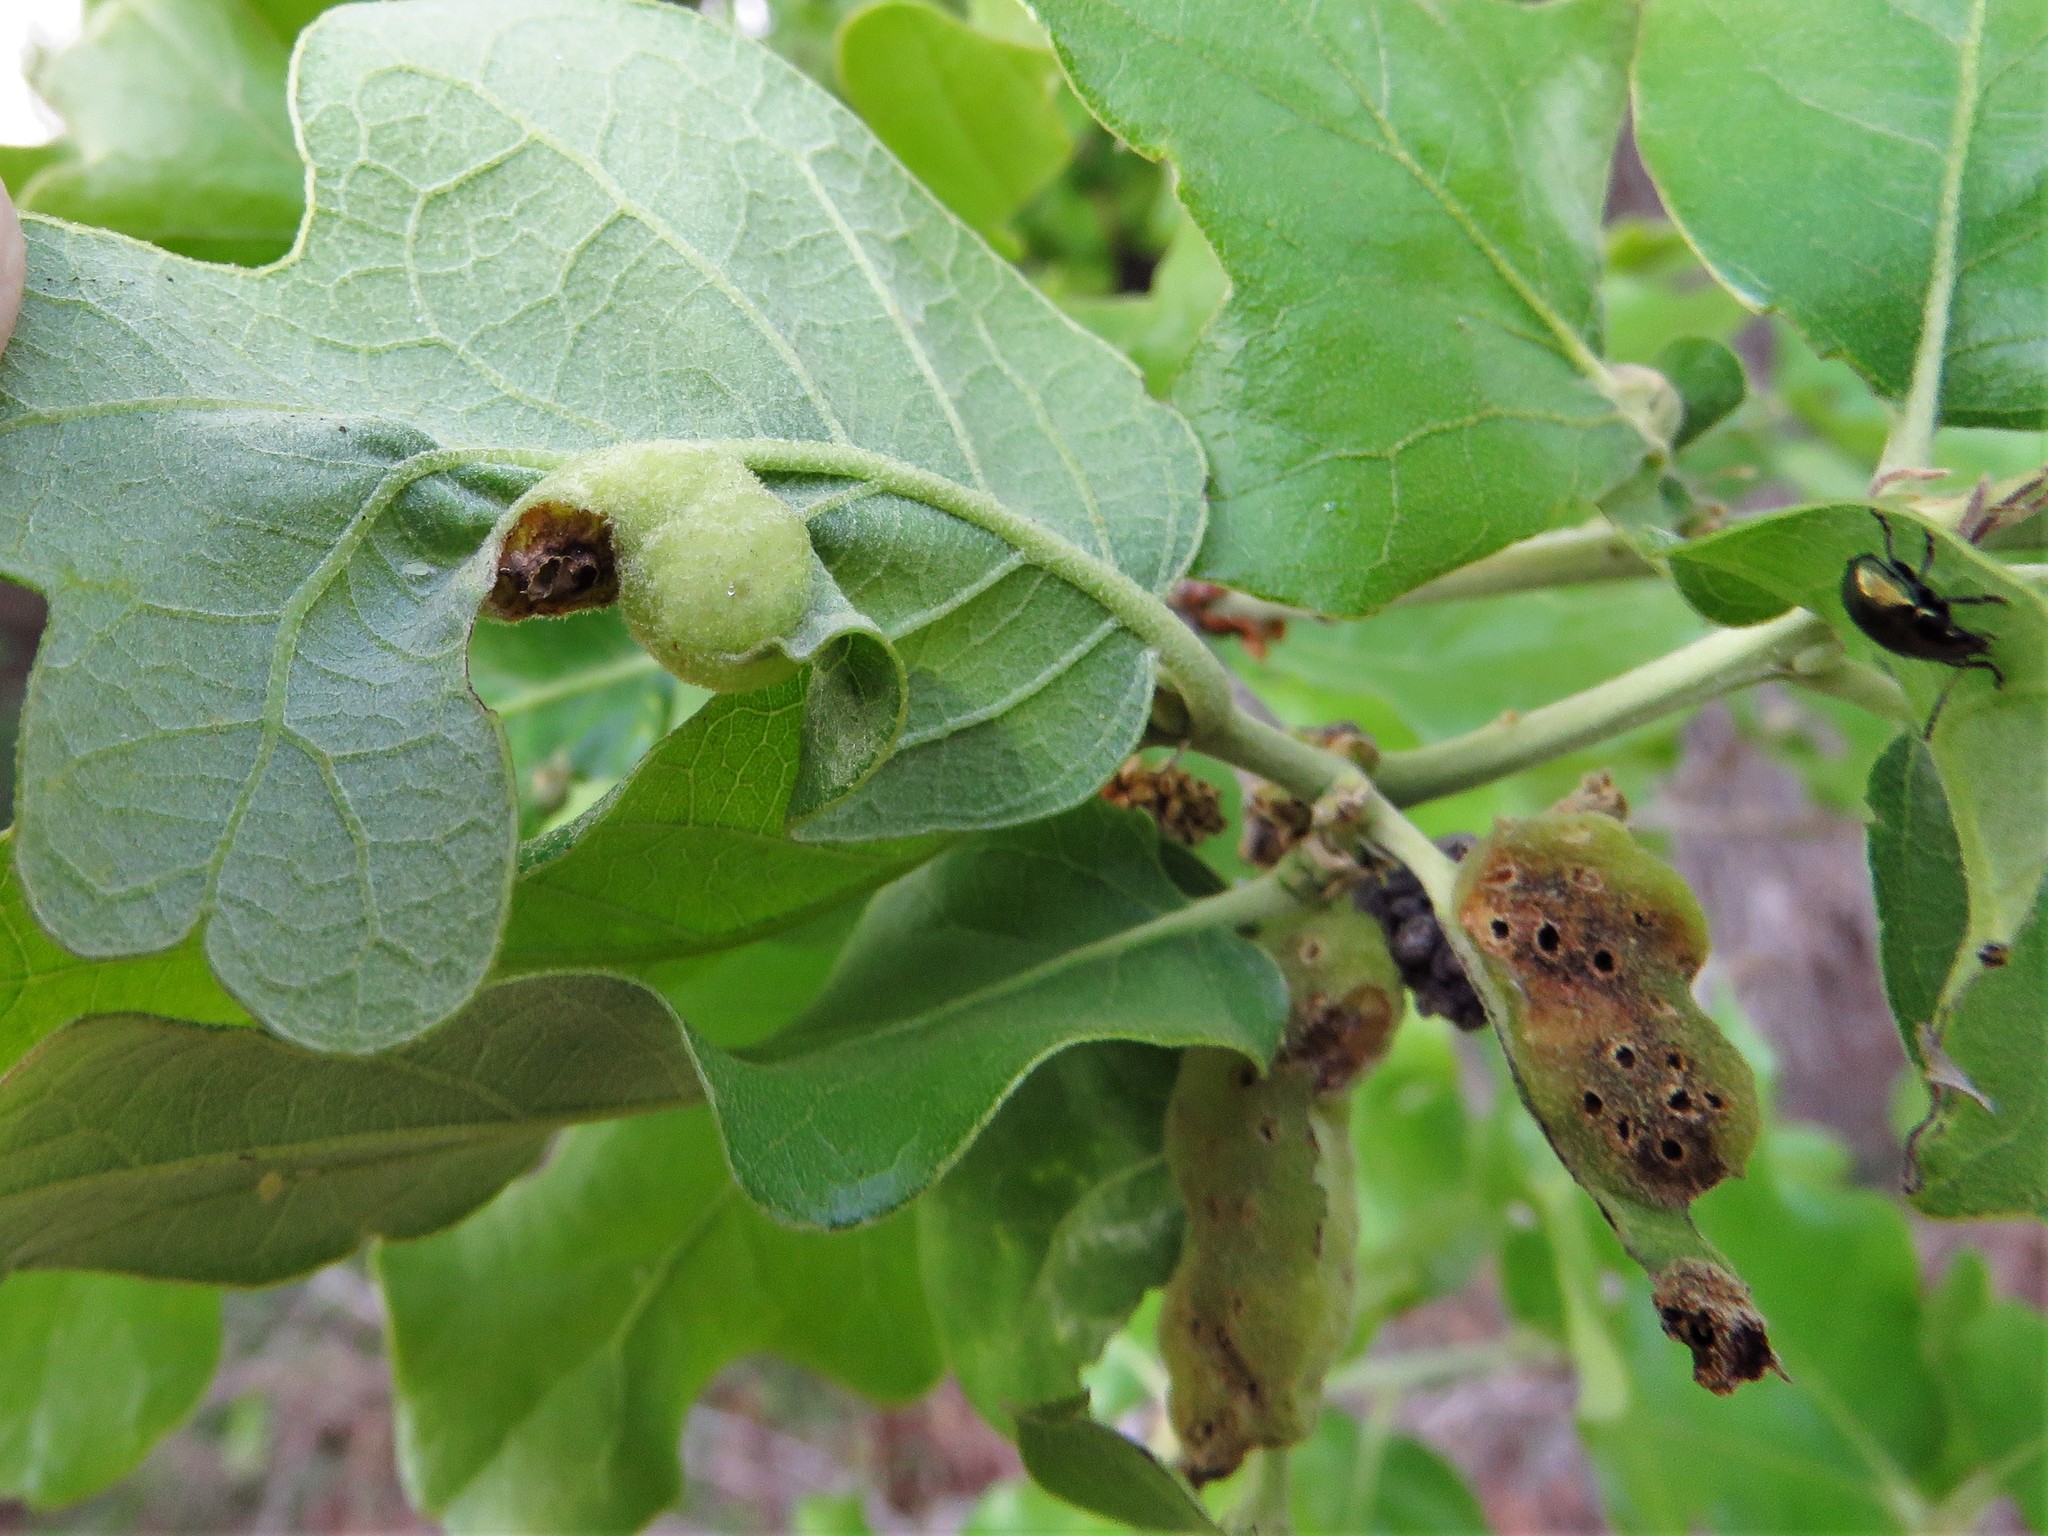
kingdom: Animalia
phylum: Arthropoda
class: Insecta
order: Hymenoptera
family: Cynipidae
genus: Neuroterus
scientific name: Neuroterus quercusirregularis
